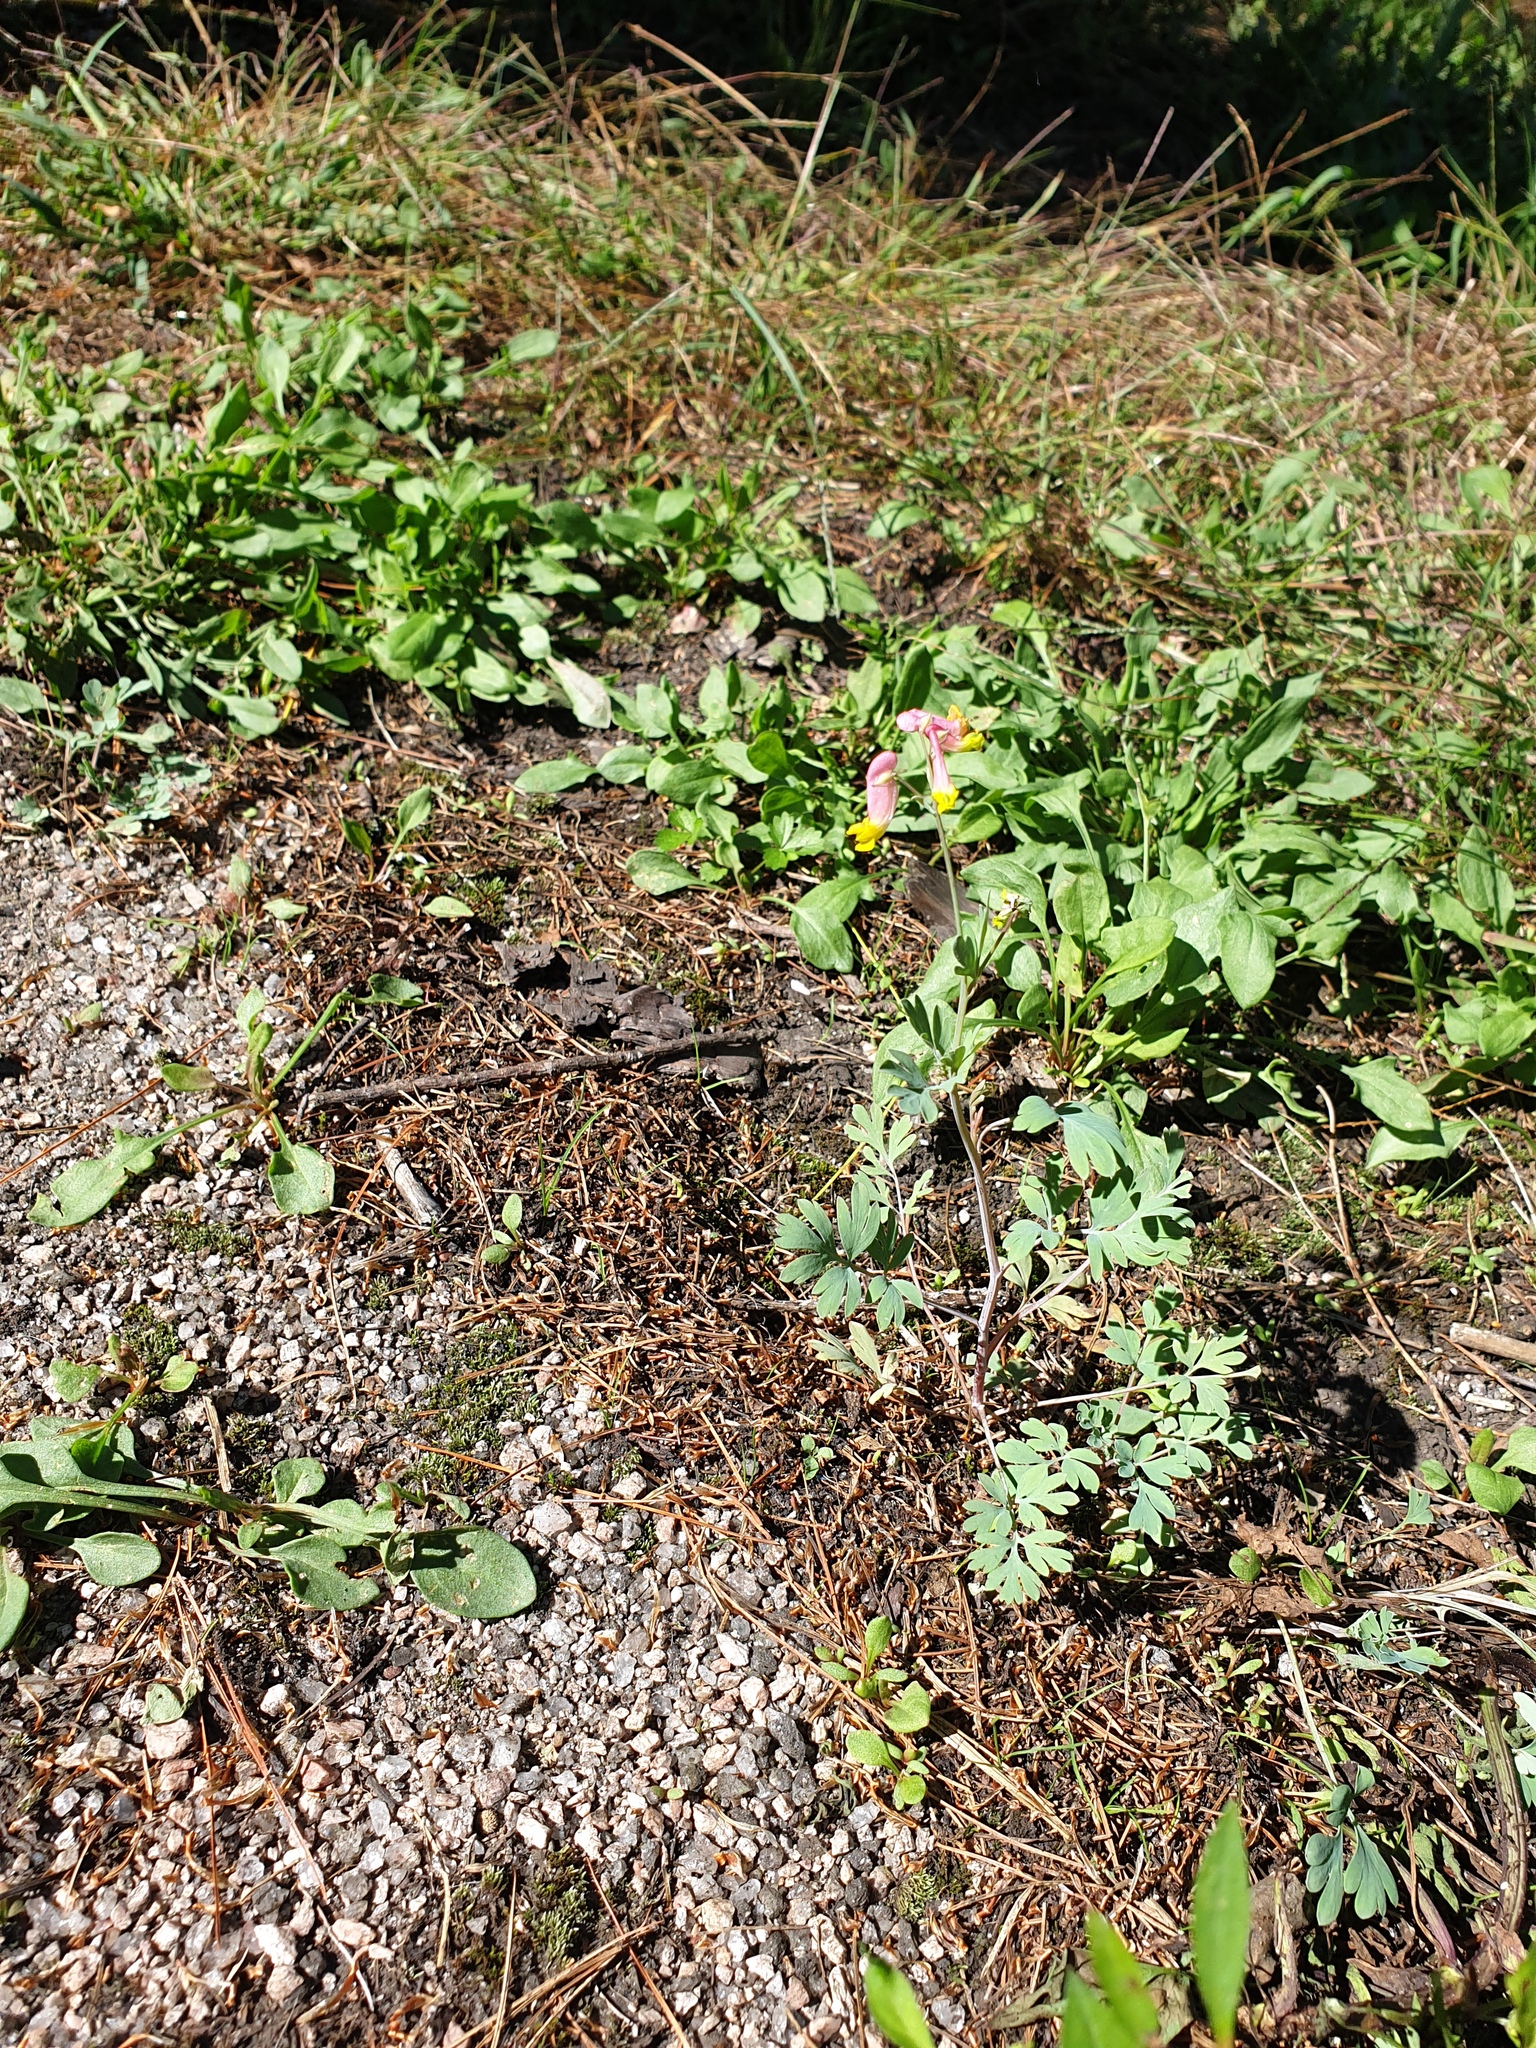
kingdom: Plantae
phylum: Tracheophyta
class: Magnoliopsida
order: Ranunculales
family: Papaveraceae
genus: Capnoides
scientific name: Capnoides sempervirens
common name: Rock harlequin
